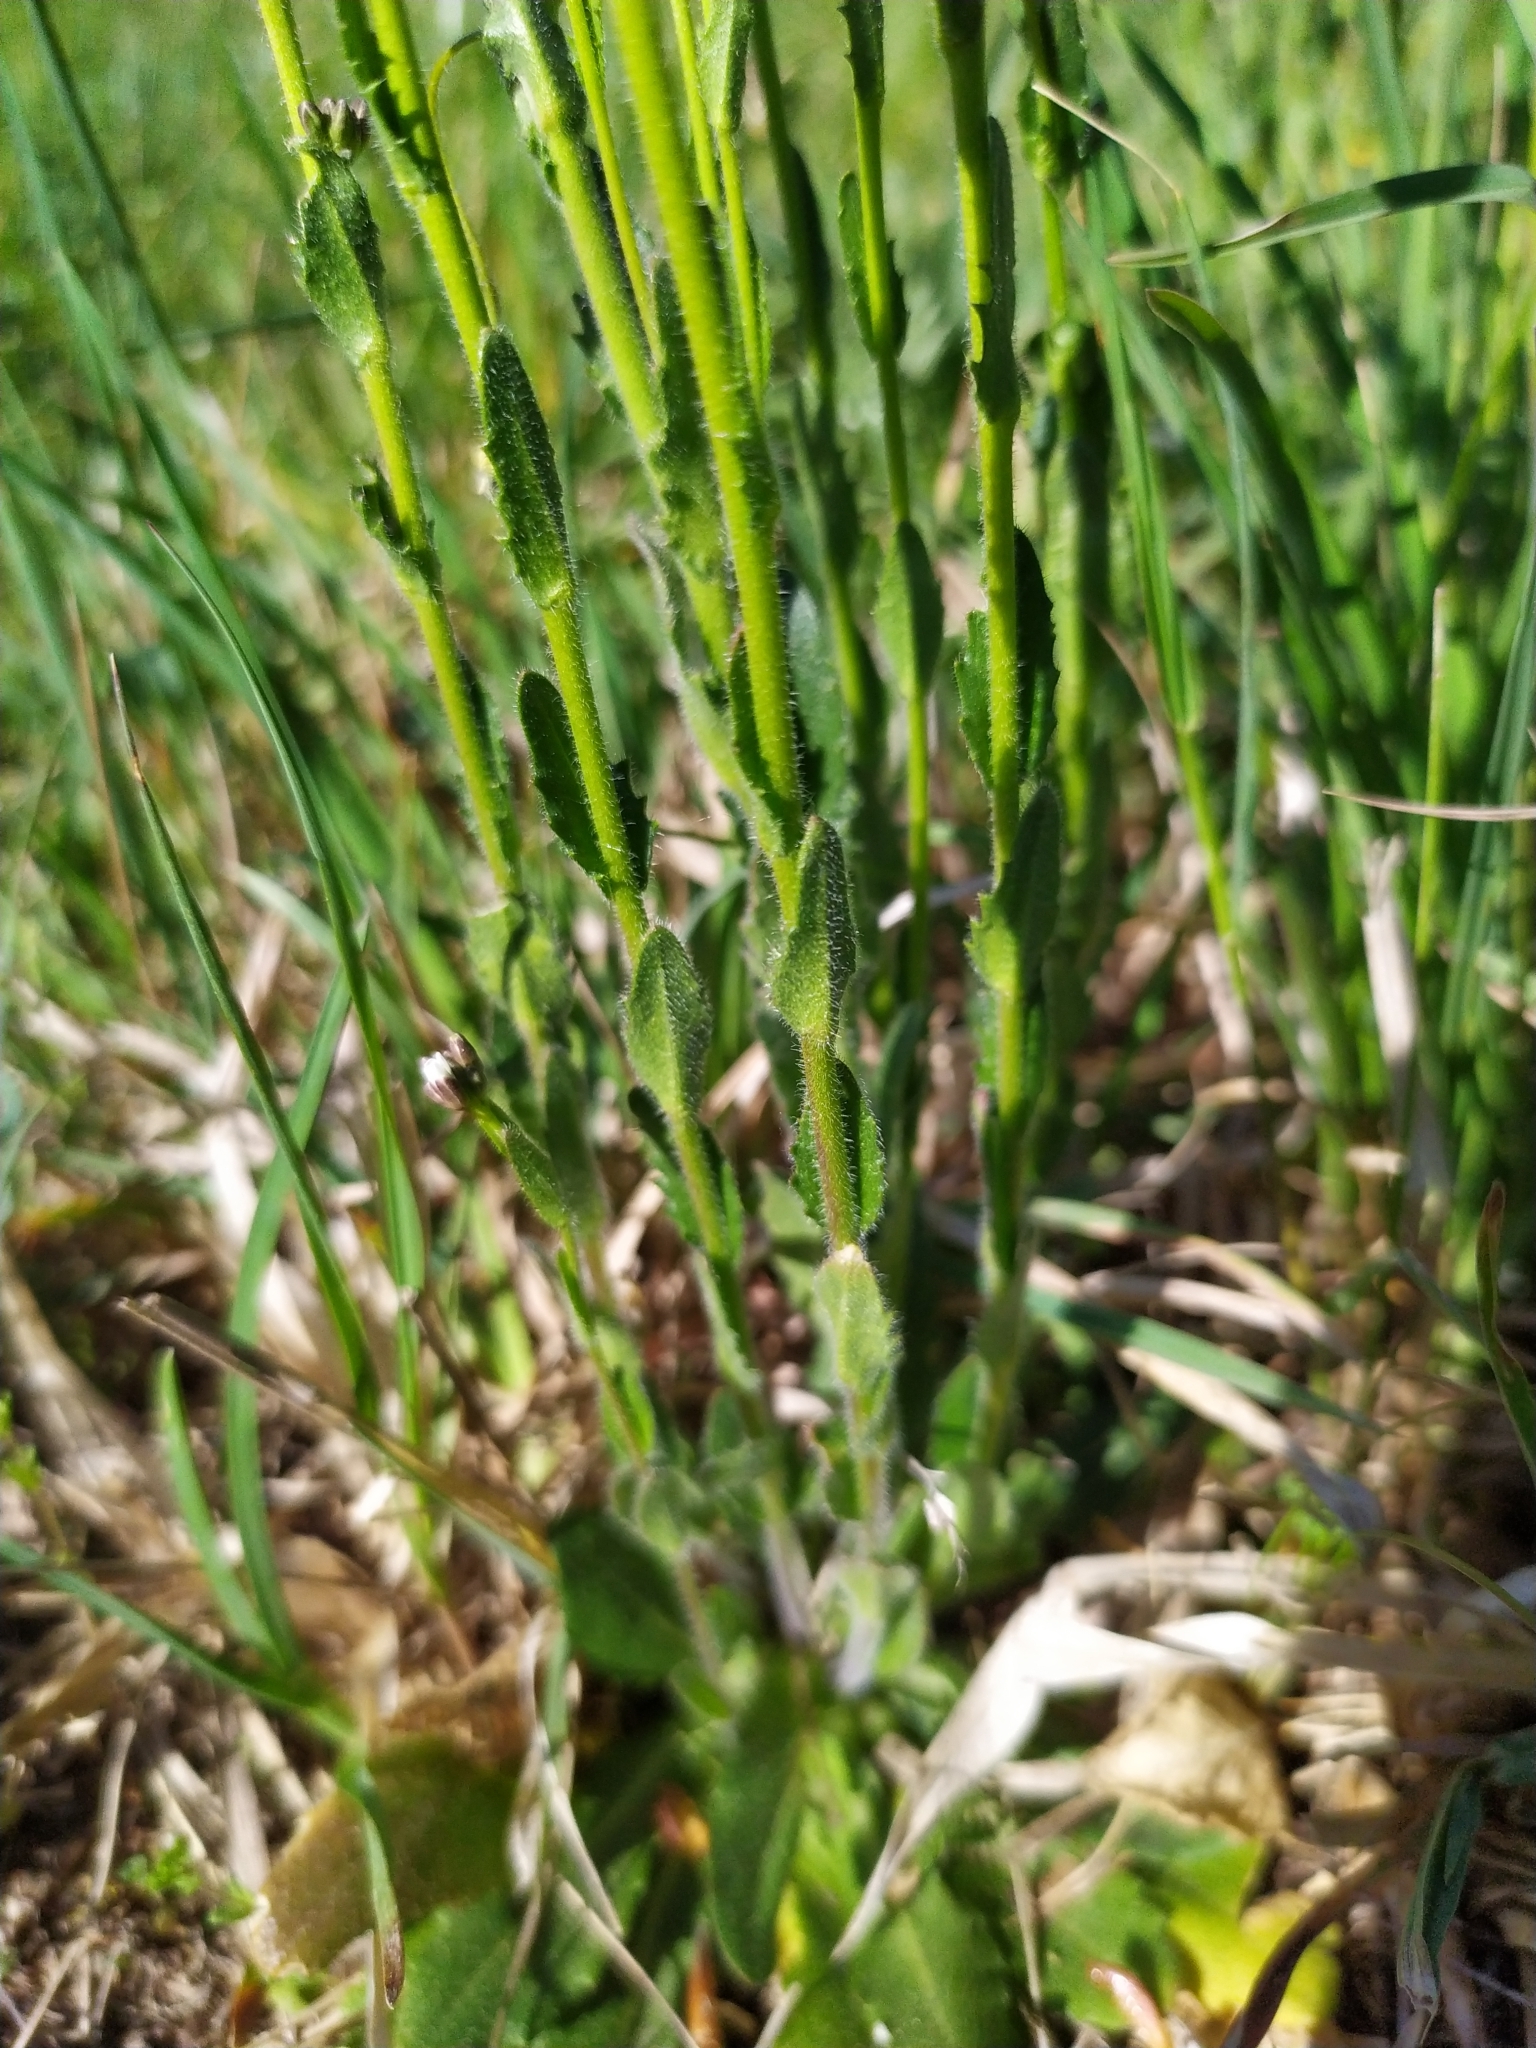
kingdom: Plantae
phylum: Tracheophyta
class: Magnoliopsida
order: Brassicales
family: Brassicaceae
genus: Arabis
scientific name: Arabis hirsuta
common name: Hairy rock-cress
